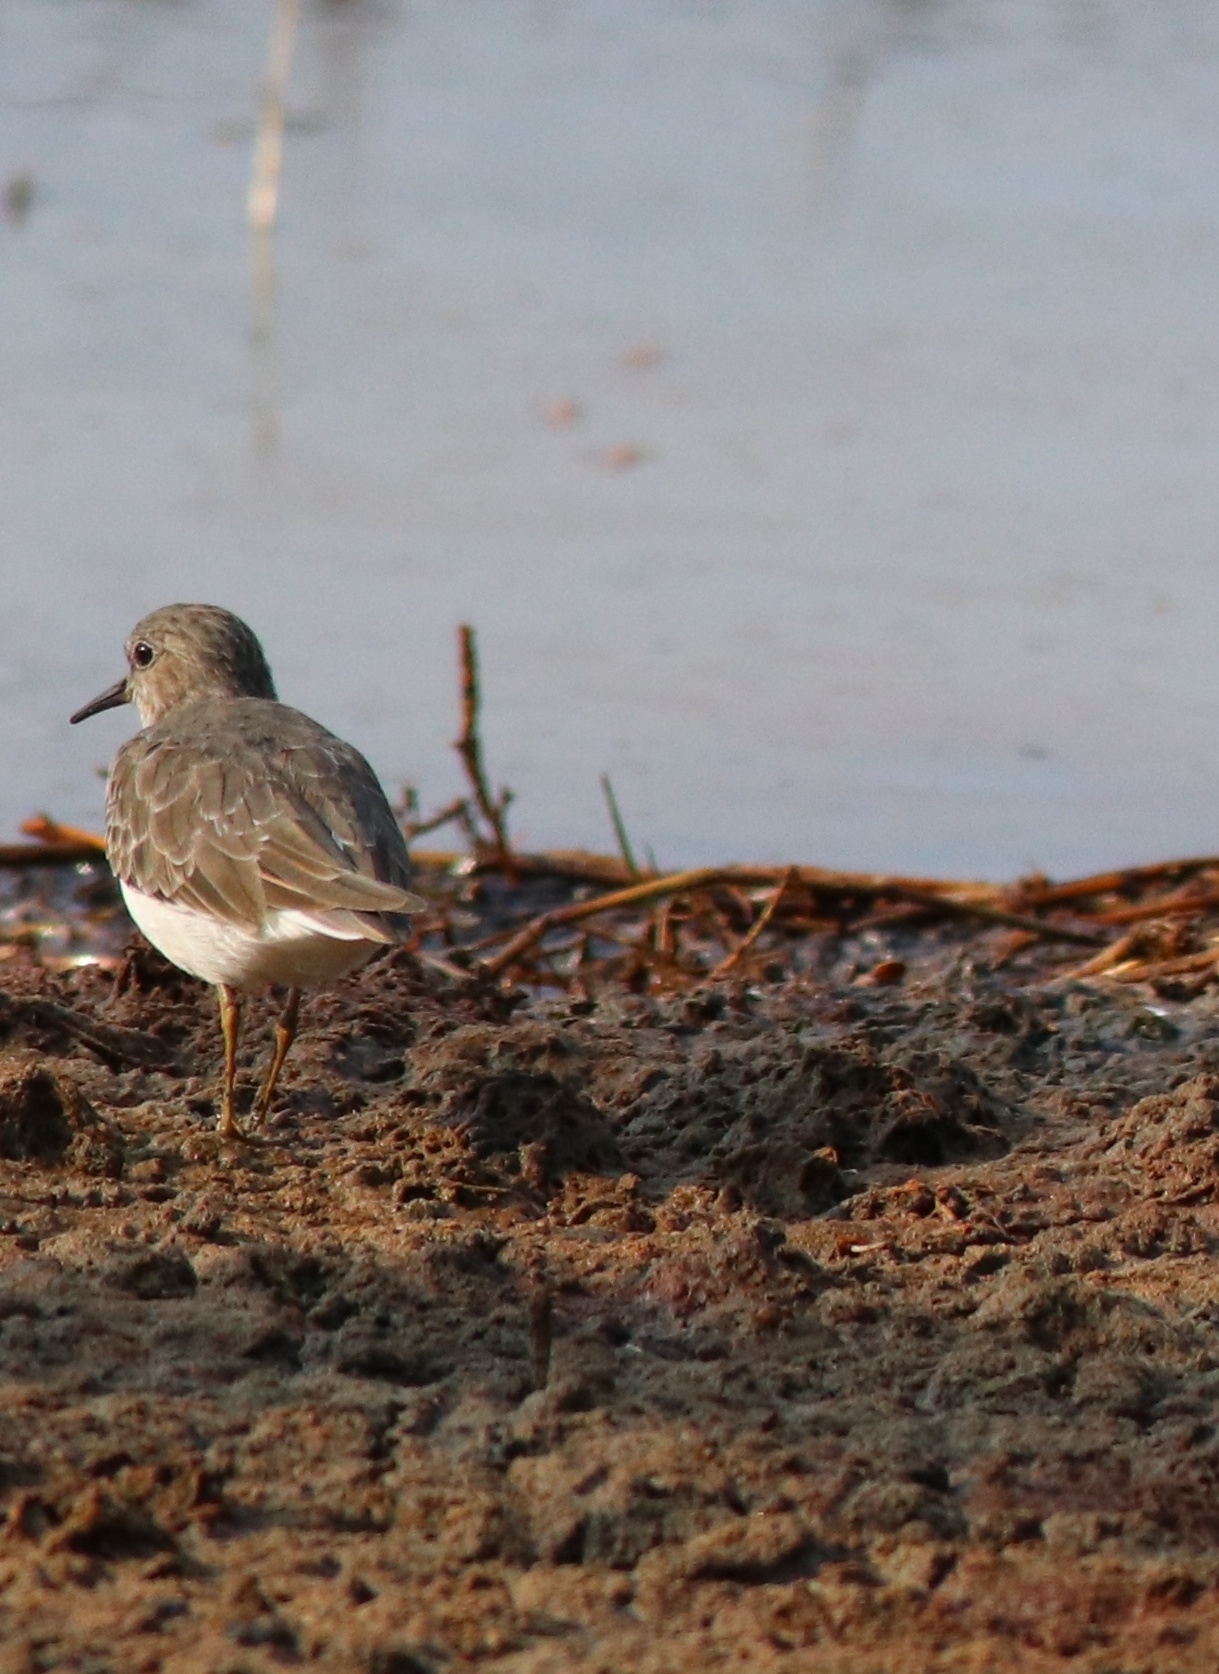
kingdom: Animalia
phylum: Chordata
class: Aves
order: Charadriiformes
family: Scolopacidae
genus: Calidris
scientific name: Calidris temminckii
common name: Temminck's stint
